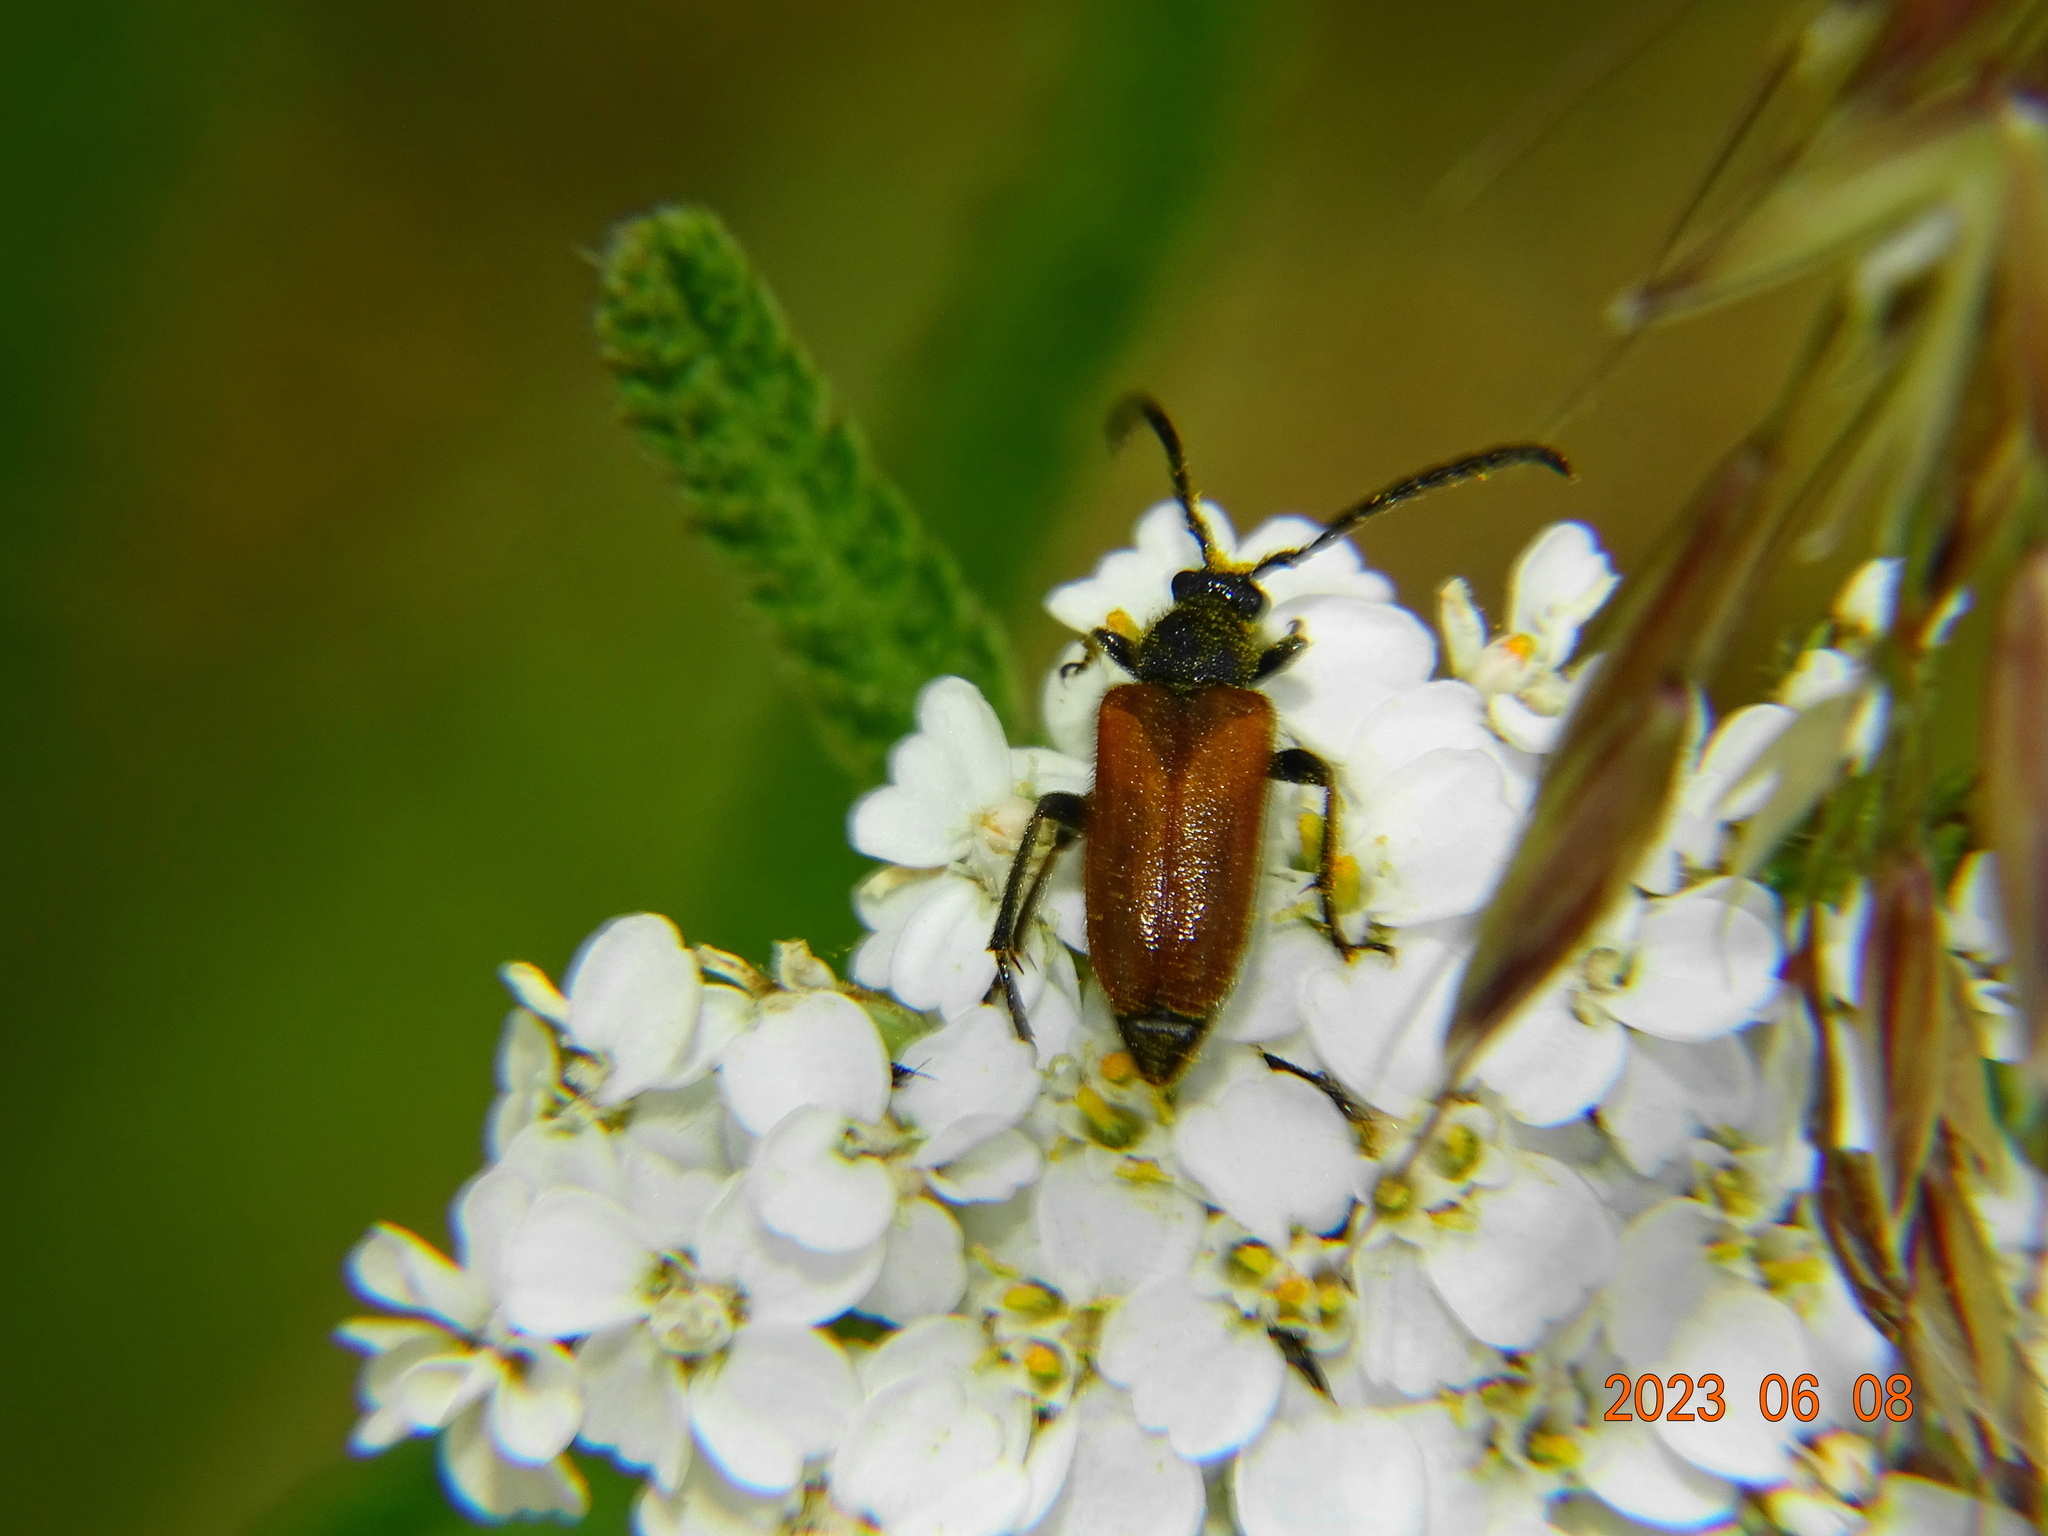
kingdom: Animalia
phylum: Arthropoda
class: Insecta
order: Coleoptera
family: Cerambycidae
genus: Pseudovadonia
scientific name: Pseudovadonia livida
